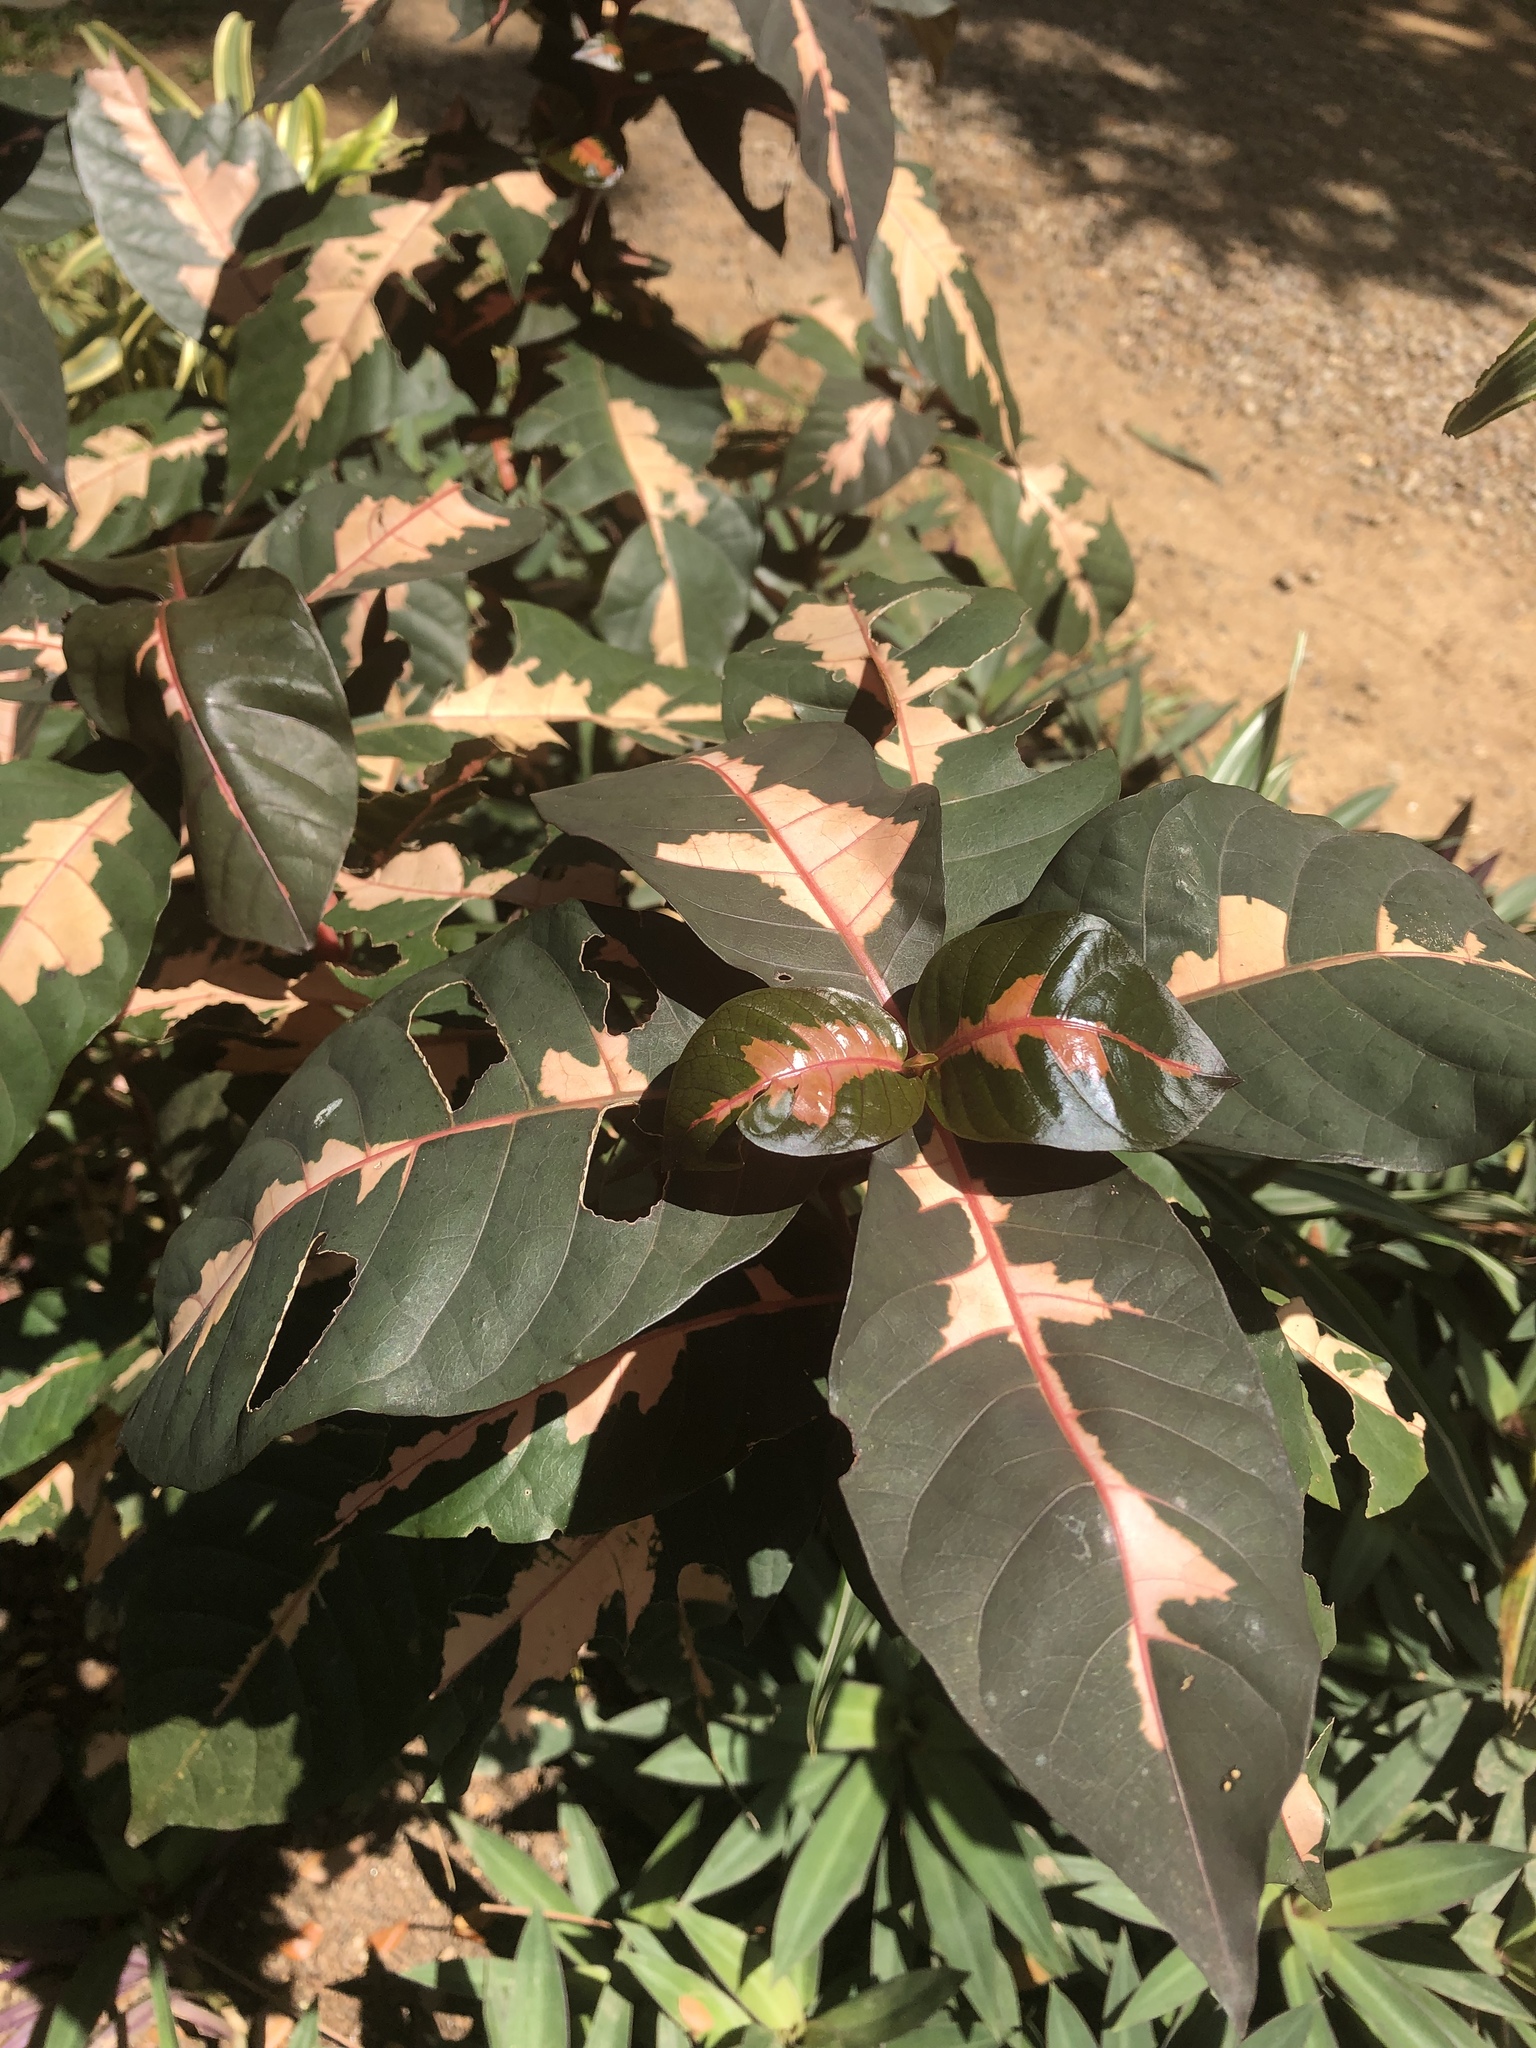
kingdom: Plantae
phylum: Tracheophyta
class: Magnoliopsida
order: Lamiales
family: Acanthaceae
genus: Graptophyllum
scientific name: Graptophyllum pictum
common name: Caricature-plant
